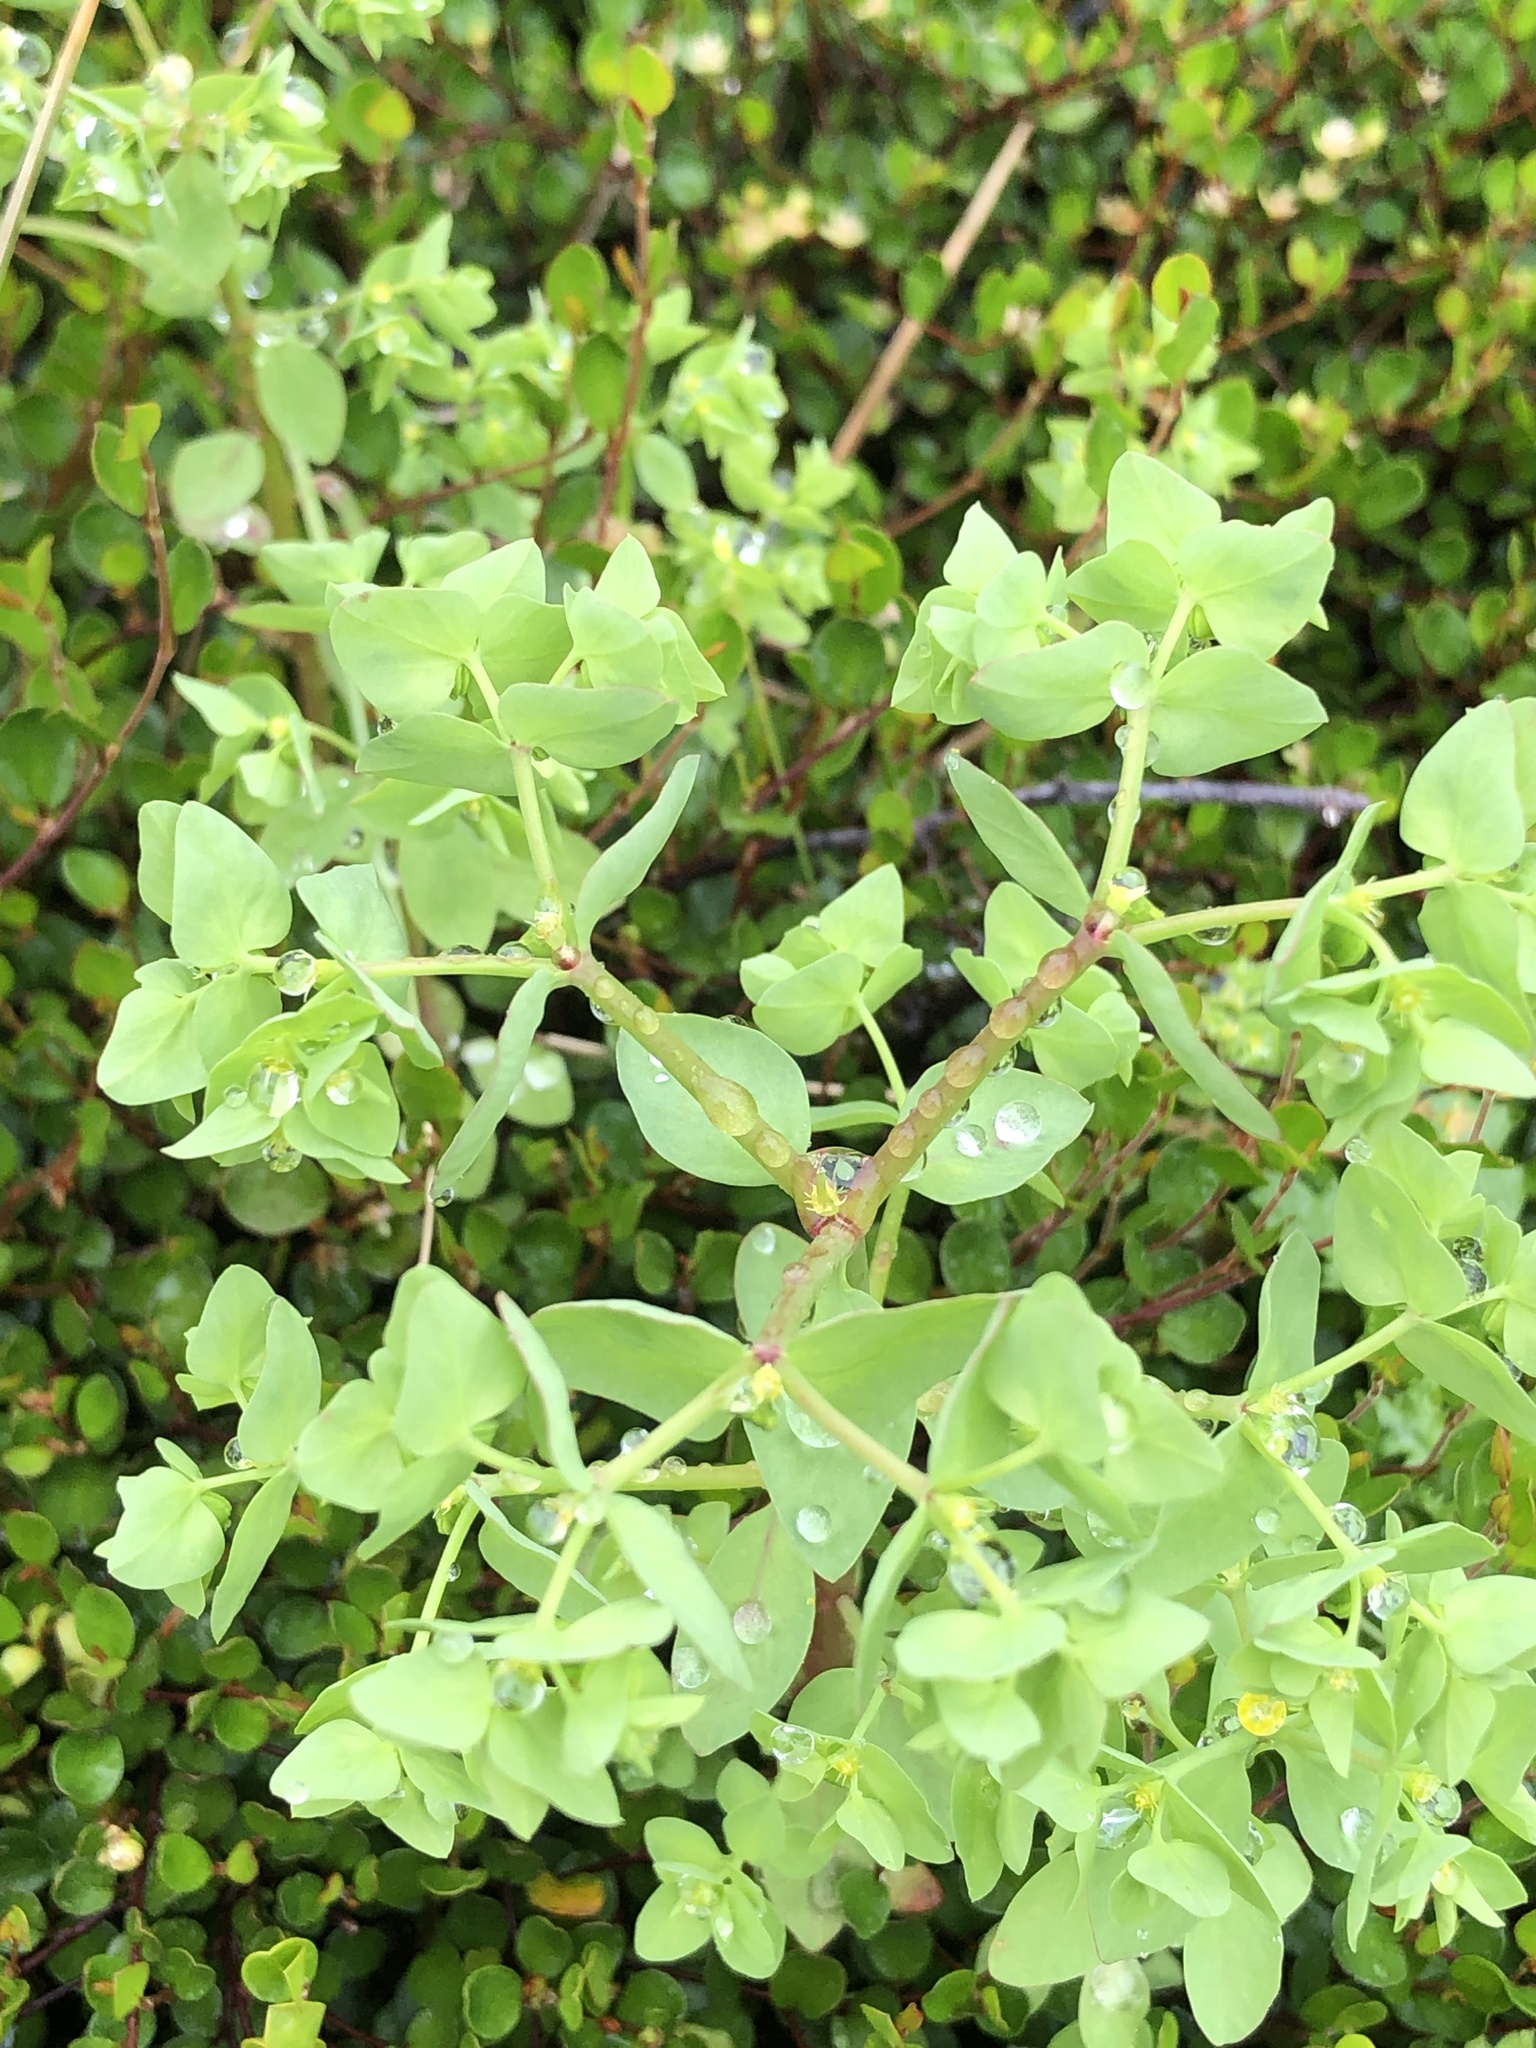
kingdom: Plantae
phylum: Tracheophyta
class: Magnoliopsida
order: Malpighiales
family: Euphorbiaceae
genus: Euphorbia
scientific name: Euphorbia peplus
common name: Petty spurge
